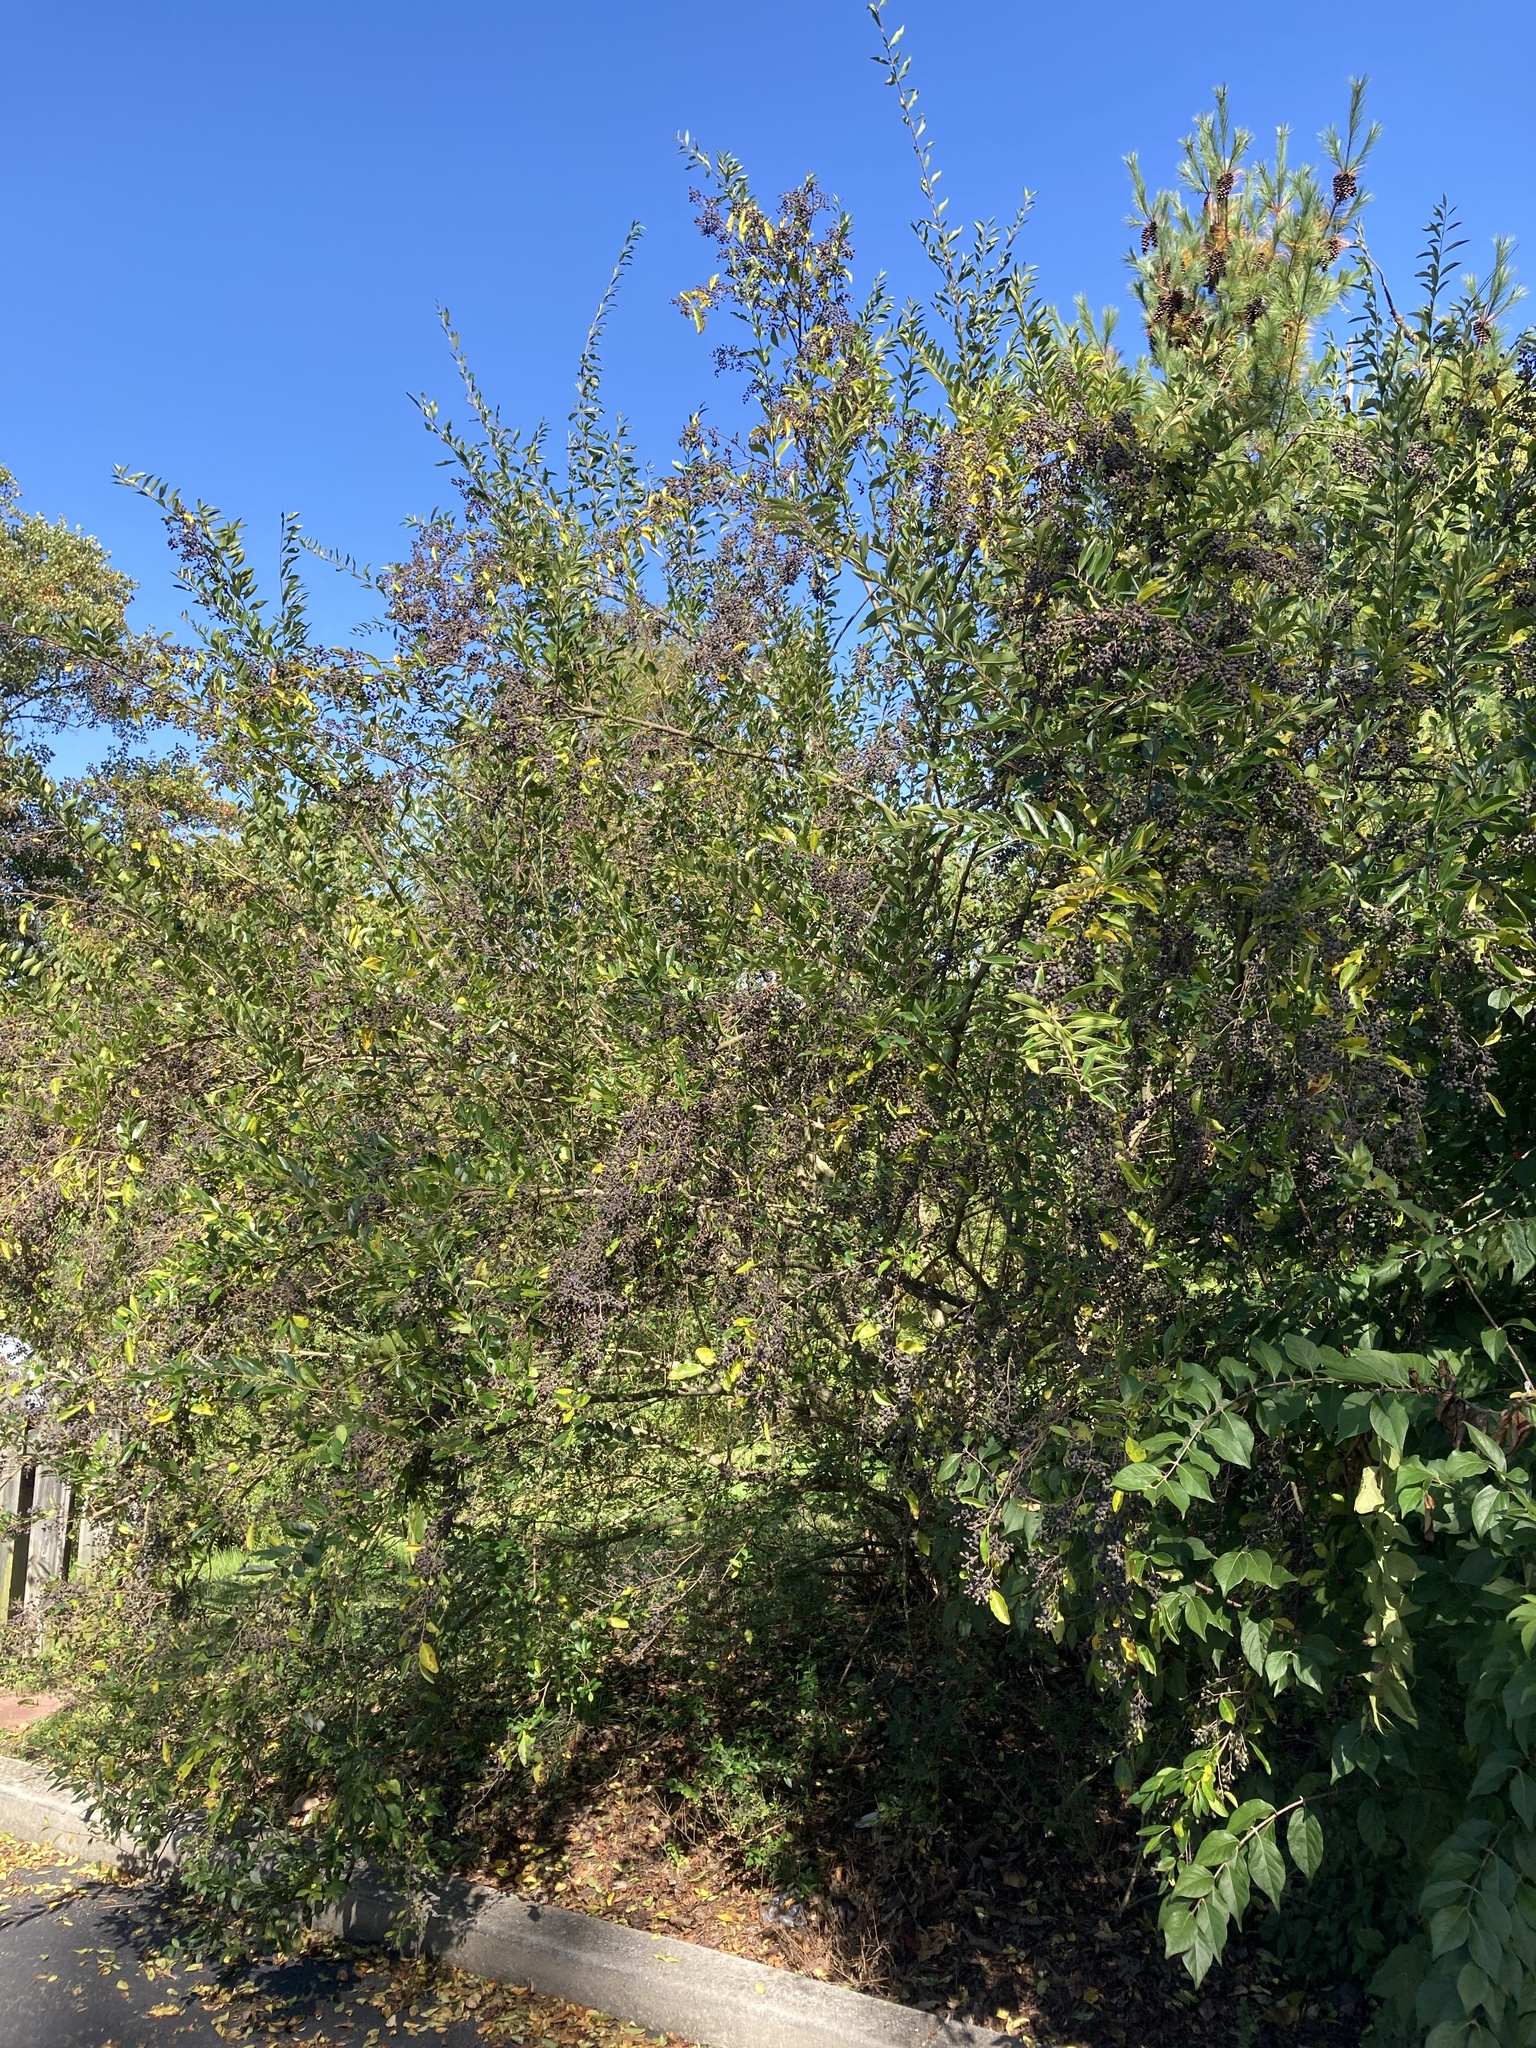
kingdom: Plantae
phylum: Tracheophyta
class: Magnoliopsida
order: Lamiales
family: Oleaceae
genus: Ligustrum
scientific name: Ligustrum sinense
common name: Chinese privet
